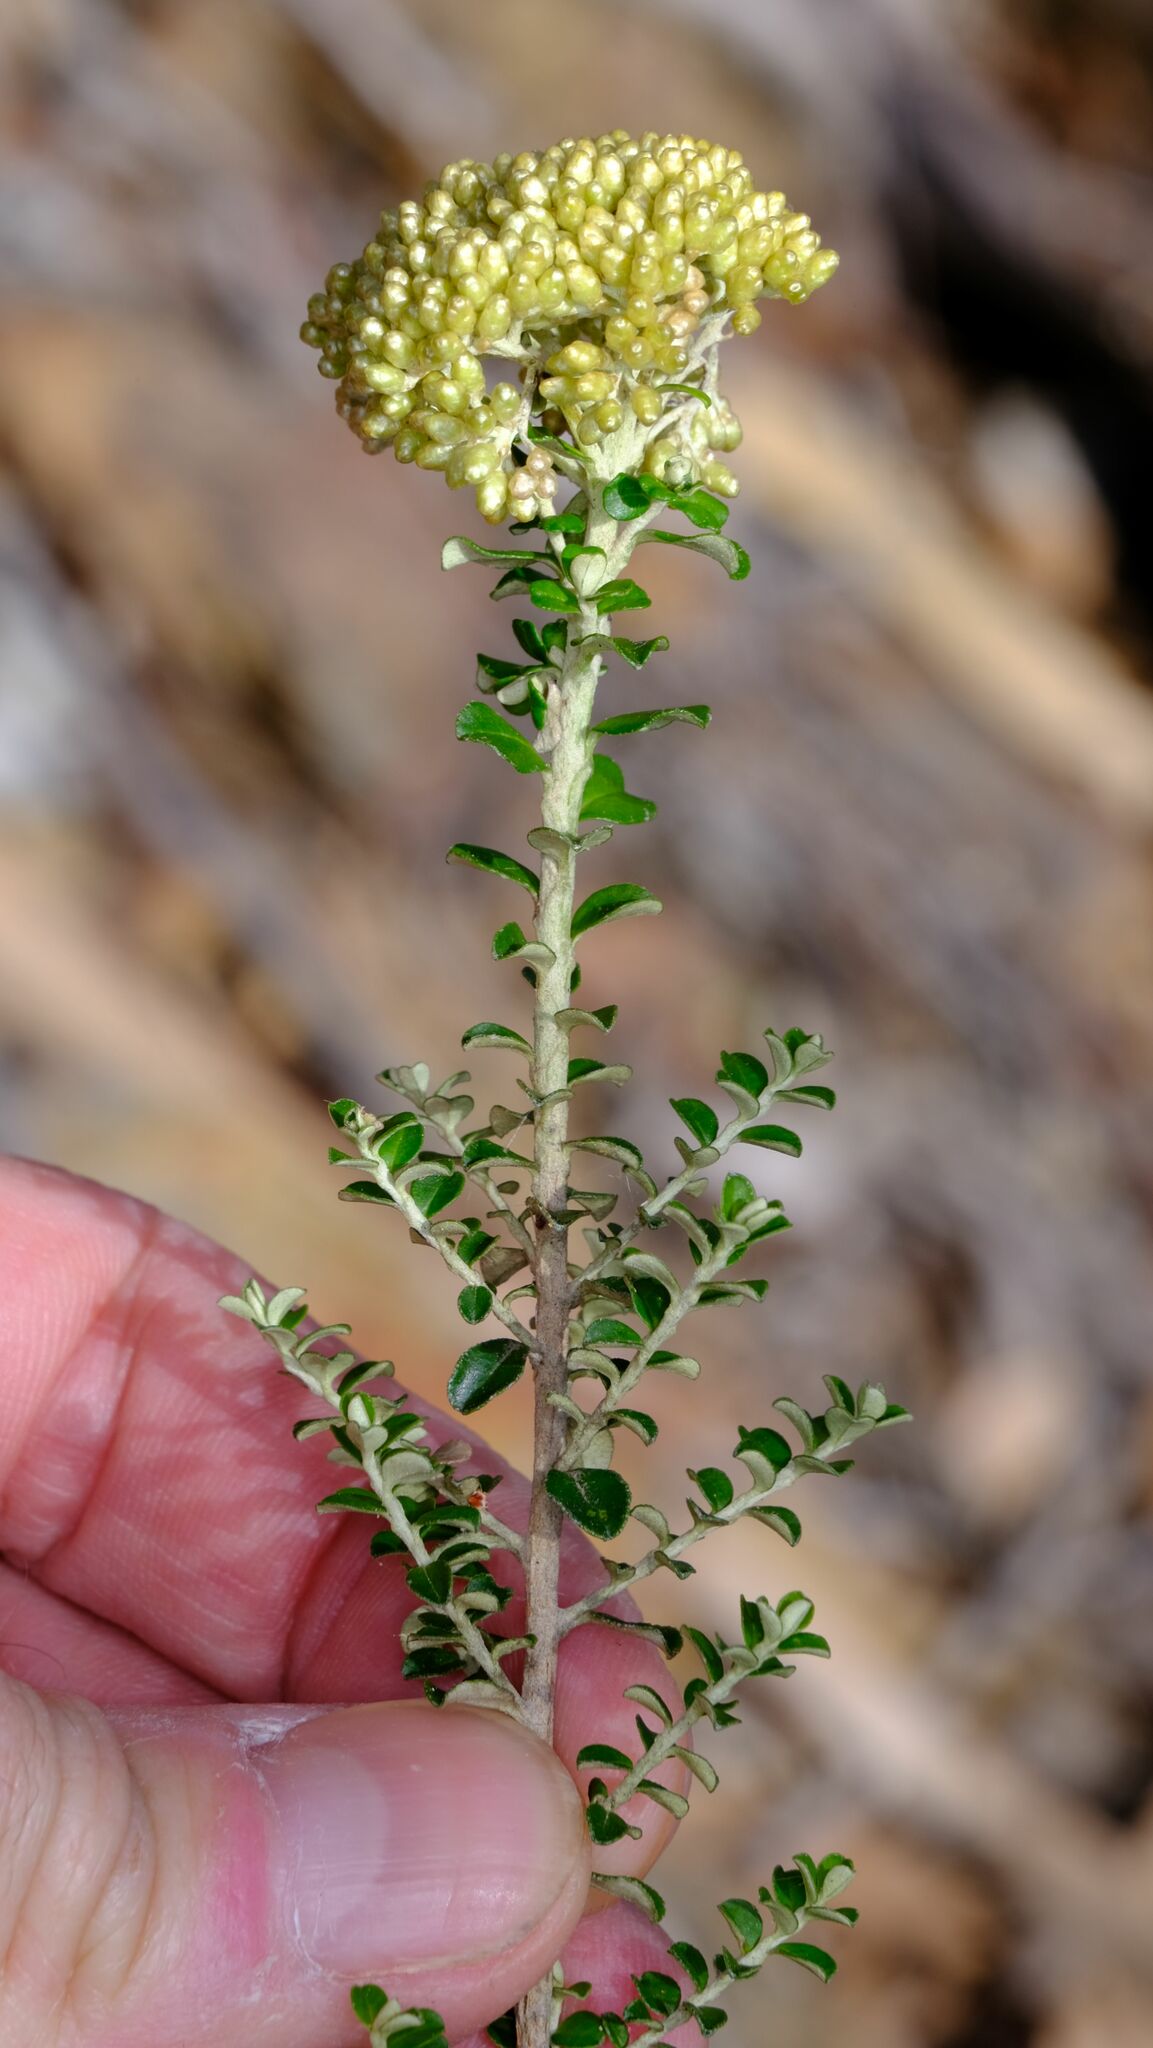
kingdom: Plantae
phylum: Tracheophyta
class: Magnoliopsida
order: Asterales
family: Asteraceae
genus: Ozothamnus
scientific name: Ozothamnus obcordatus
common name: Grey everlasting
